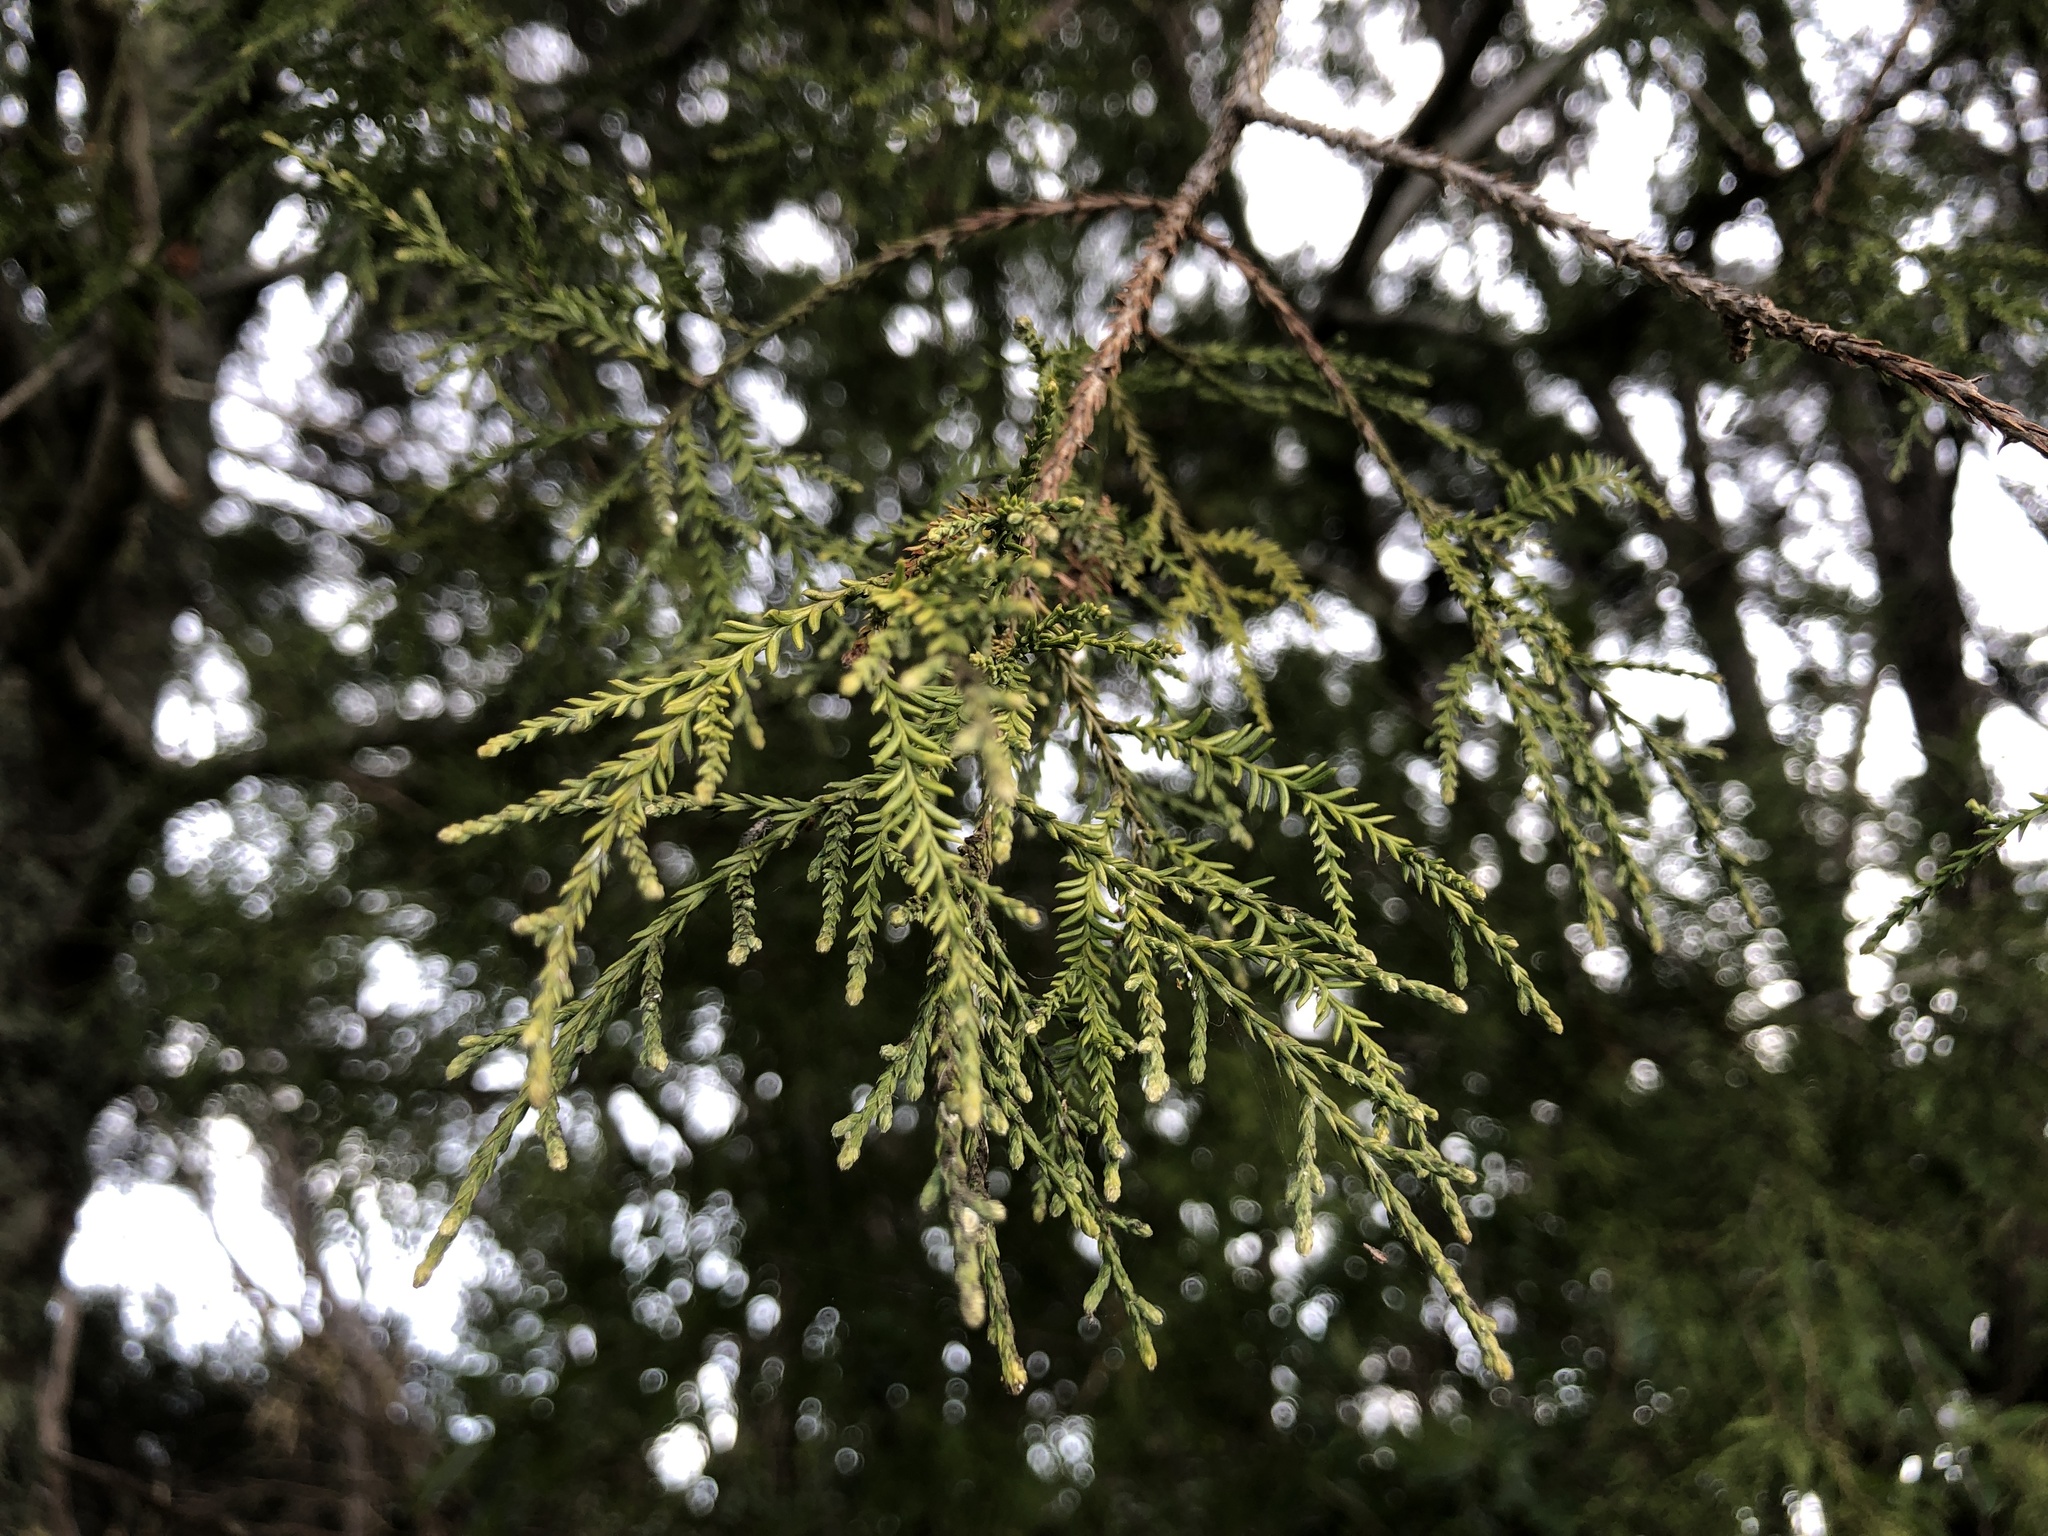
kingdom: Plantae
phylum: Tracheophyta
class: Pinopsida
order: Pinales
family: Podocarpaceae
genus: Dacrycarpus
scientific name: Dacrycarpus dacrydioides
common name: White pine
